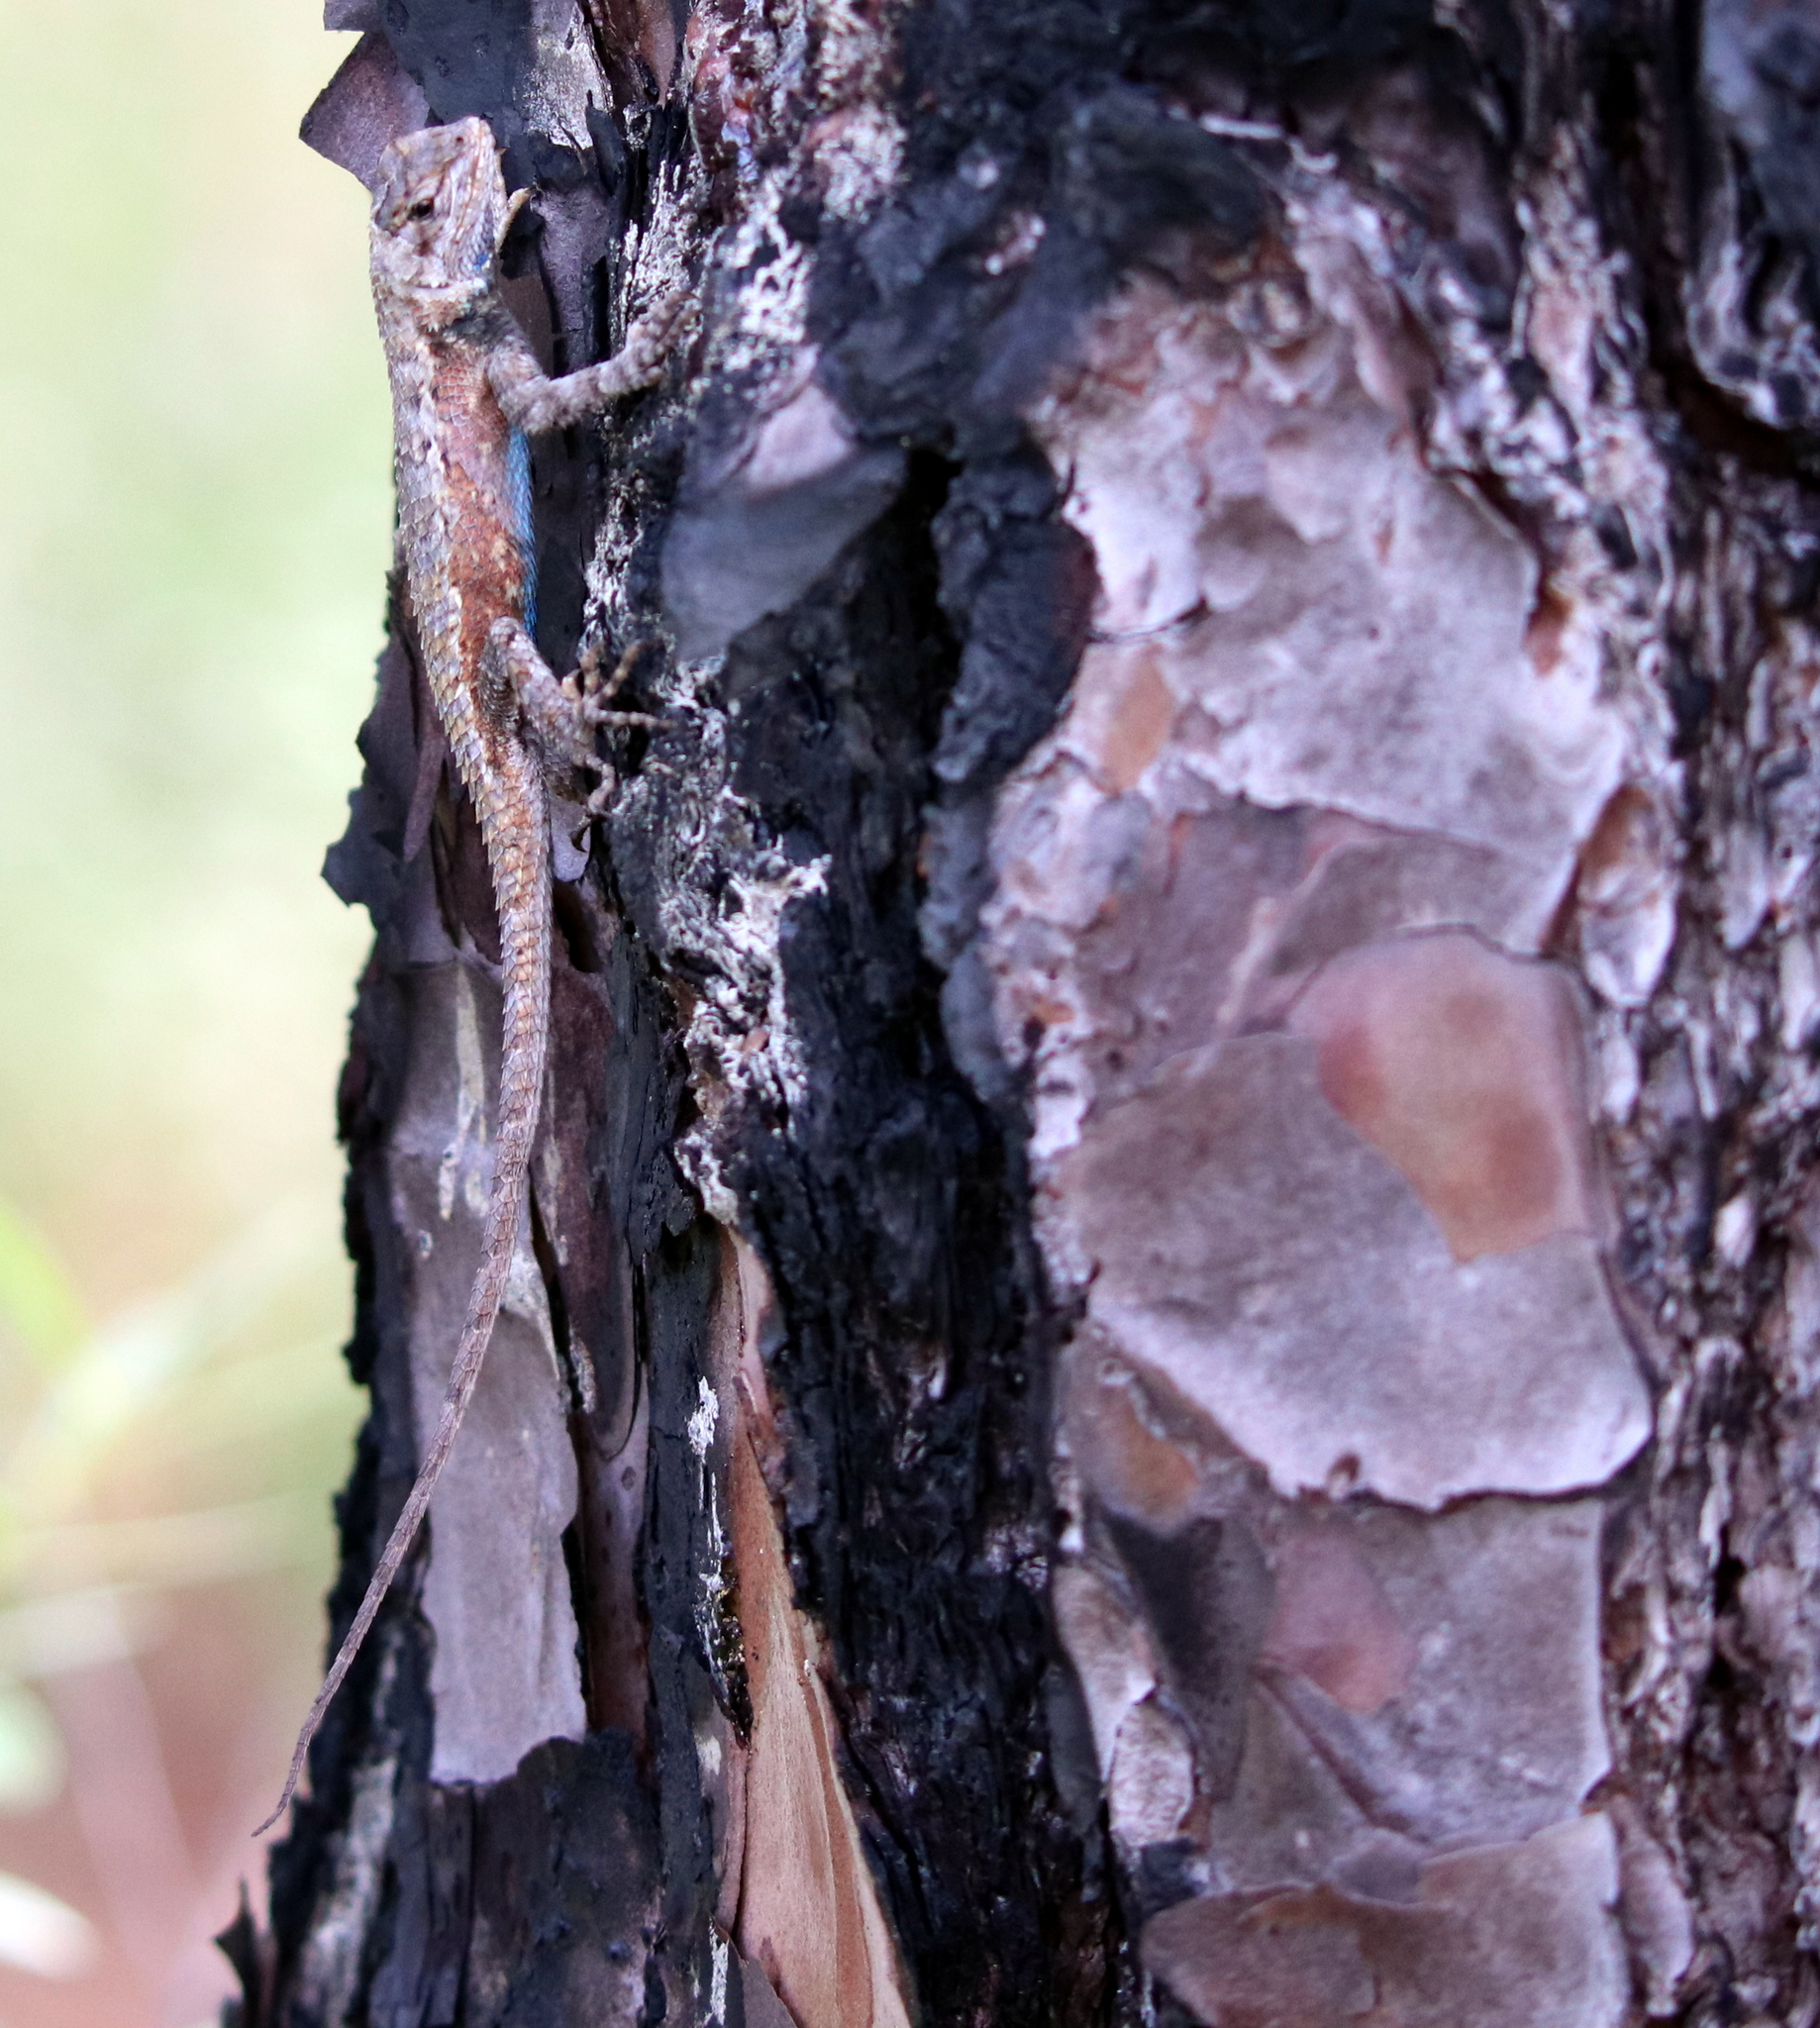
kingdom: Animalia
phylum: Chordata
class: Squamata
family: Phrynosomatidae
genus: Sceloporus
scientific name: Sceloporus undulatus
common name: Eastern fence lizard
